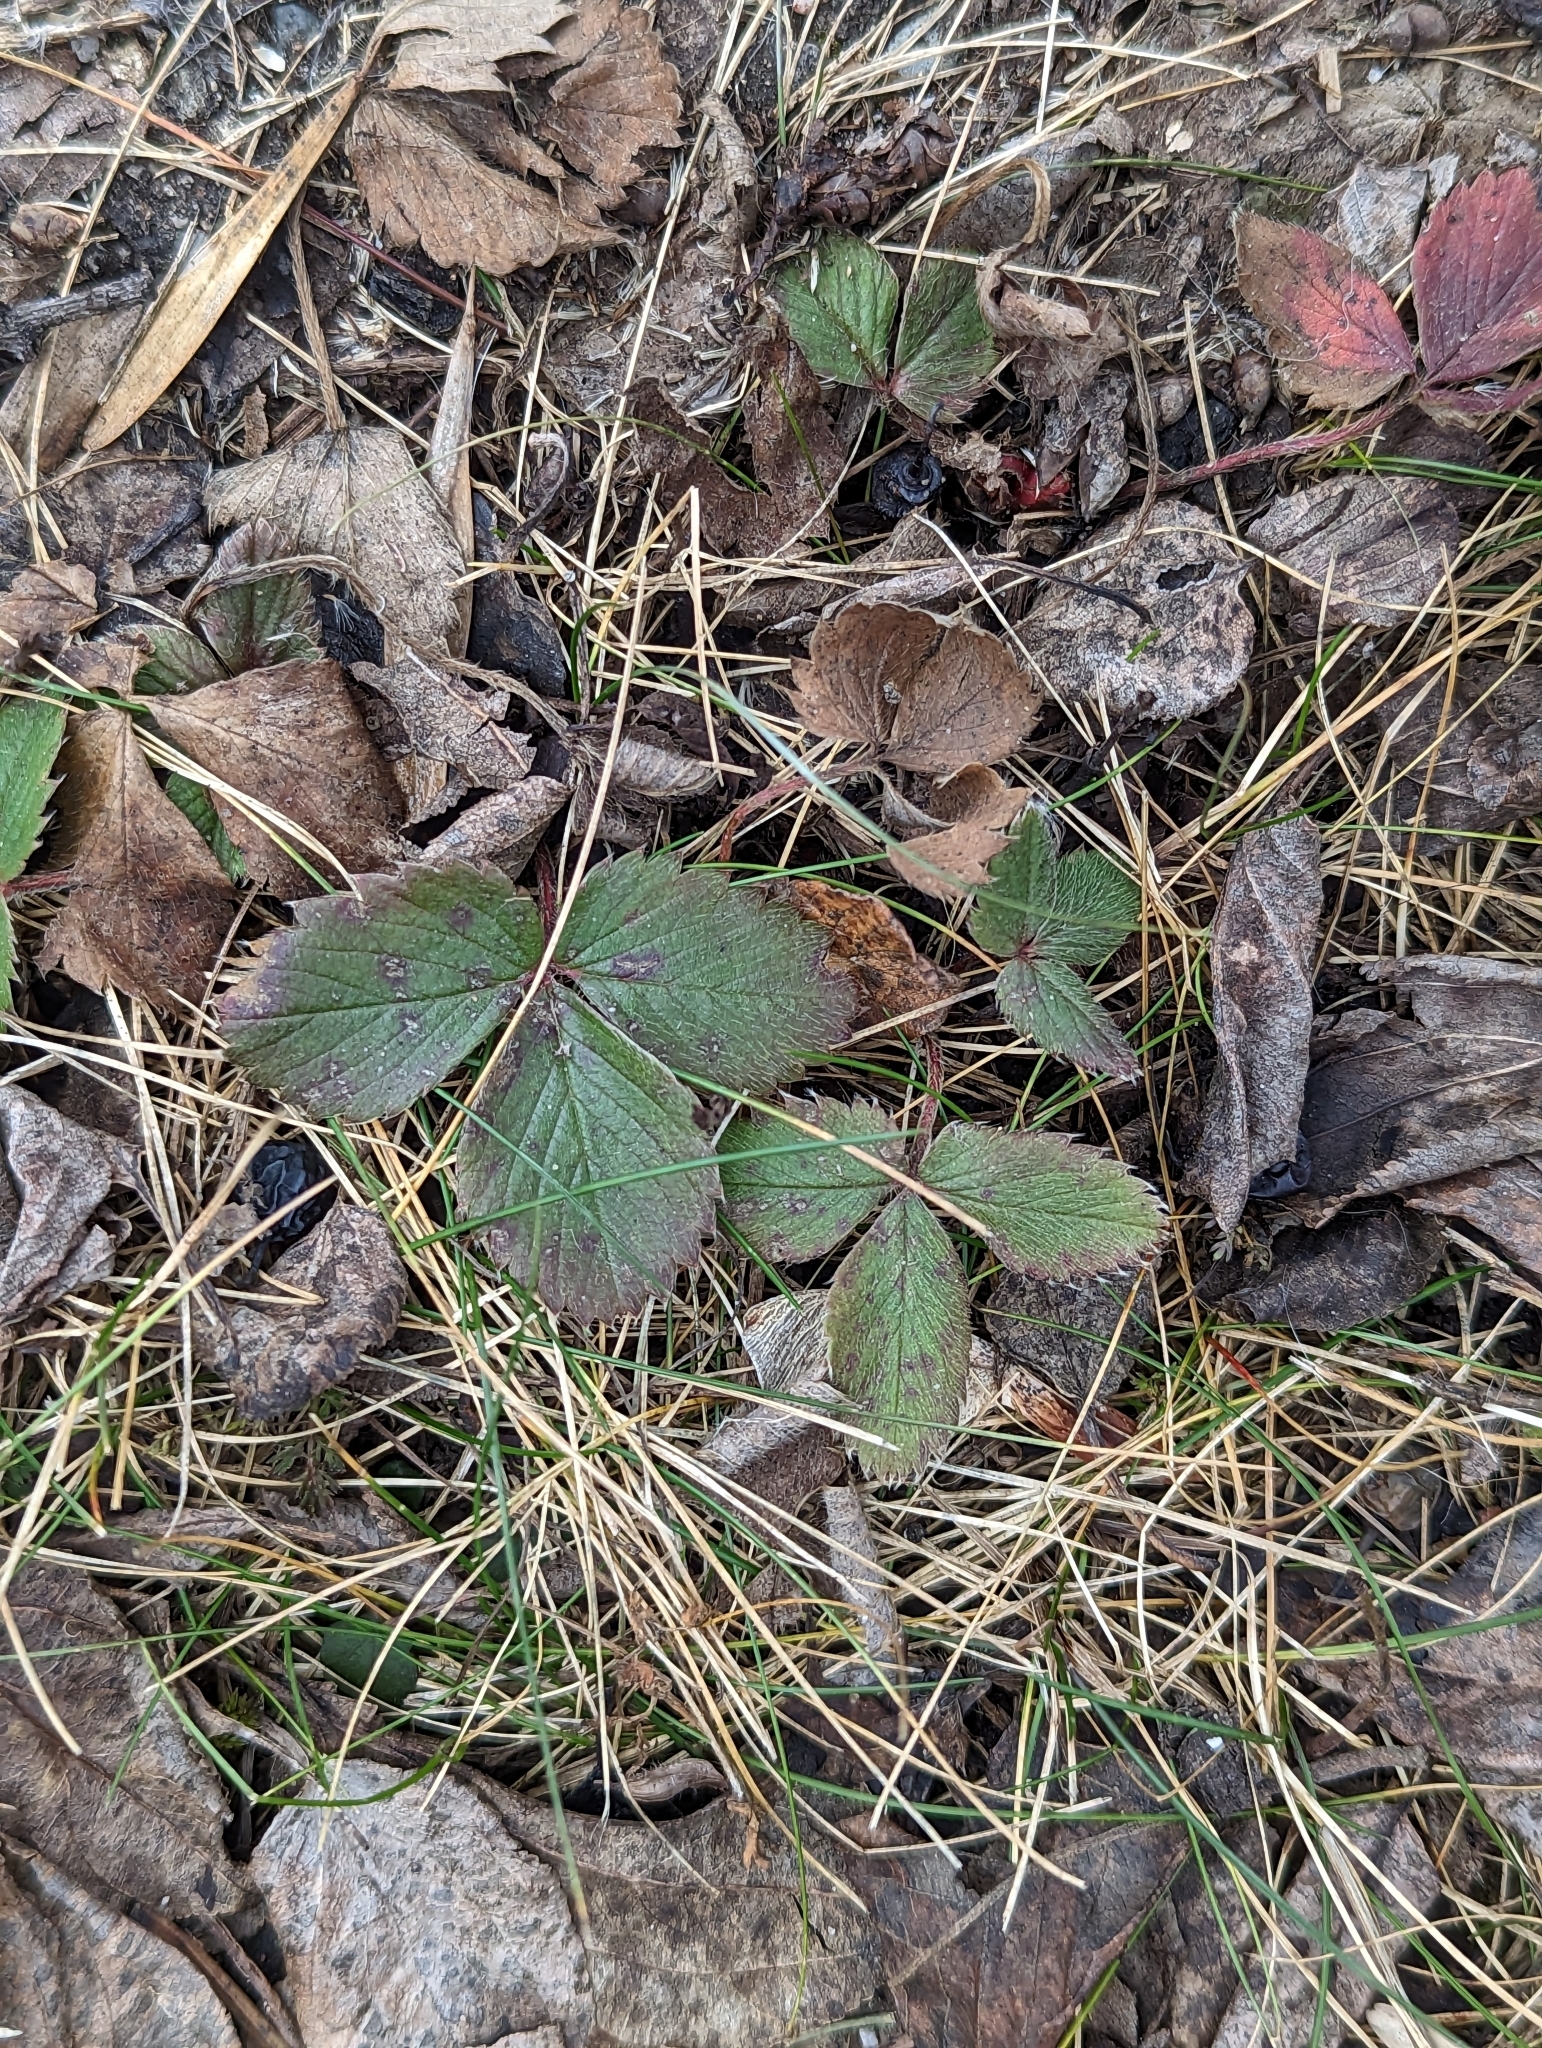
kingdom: Plantae
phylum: Tracheophyta
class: Magnoliopsida
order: Rosales
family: Rosaceae
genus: Fragaria
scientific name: Fragaria virginiana
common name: Thickleaved wild strawberry
